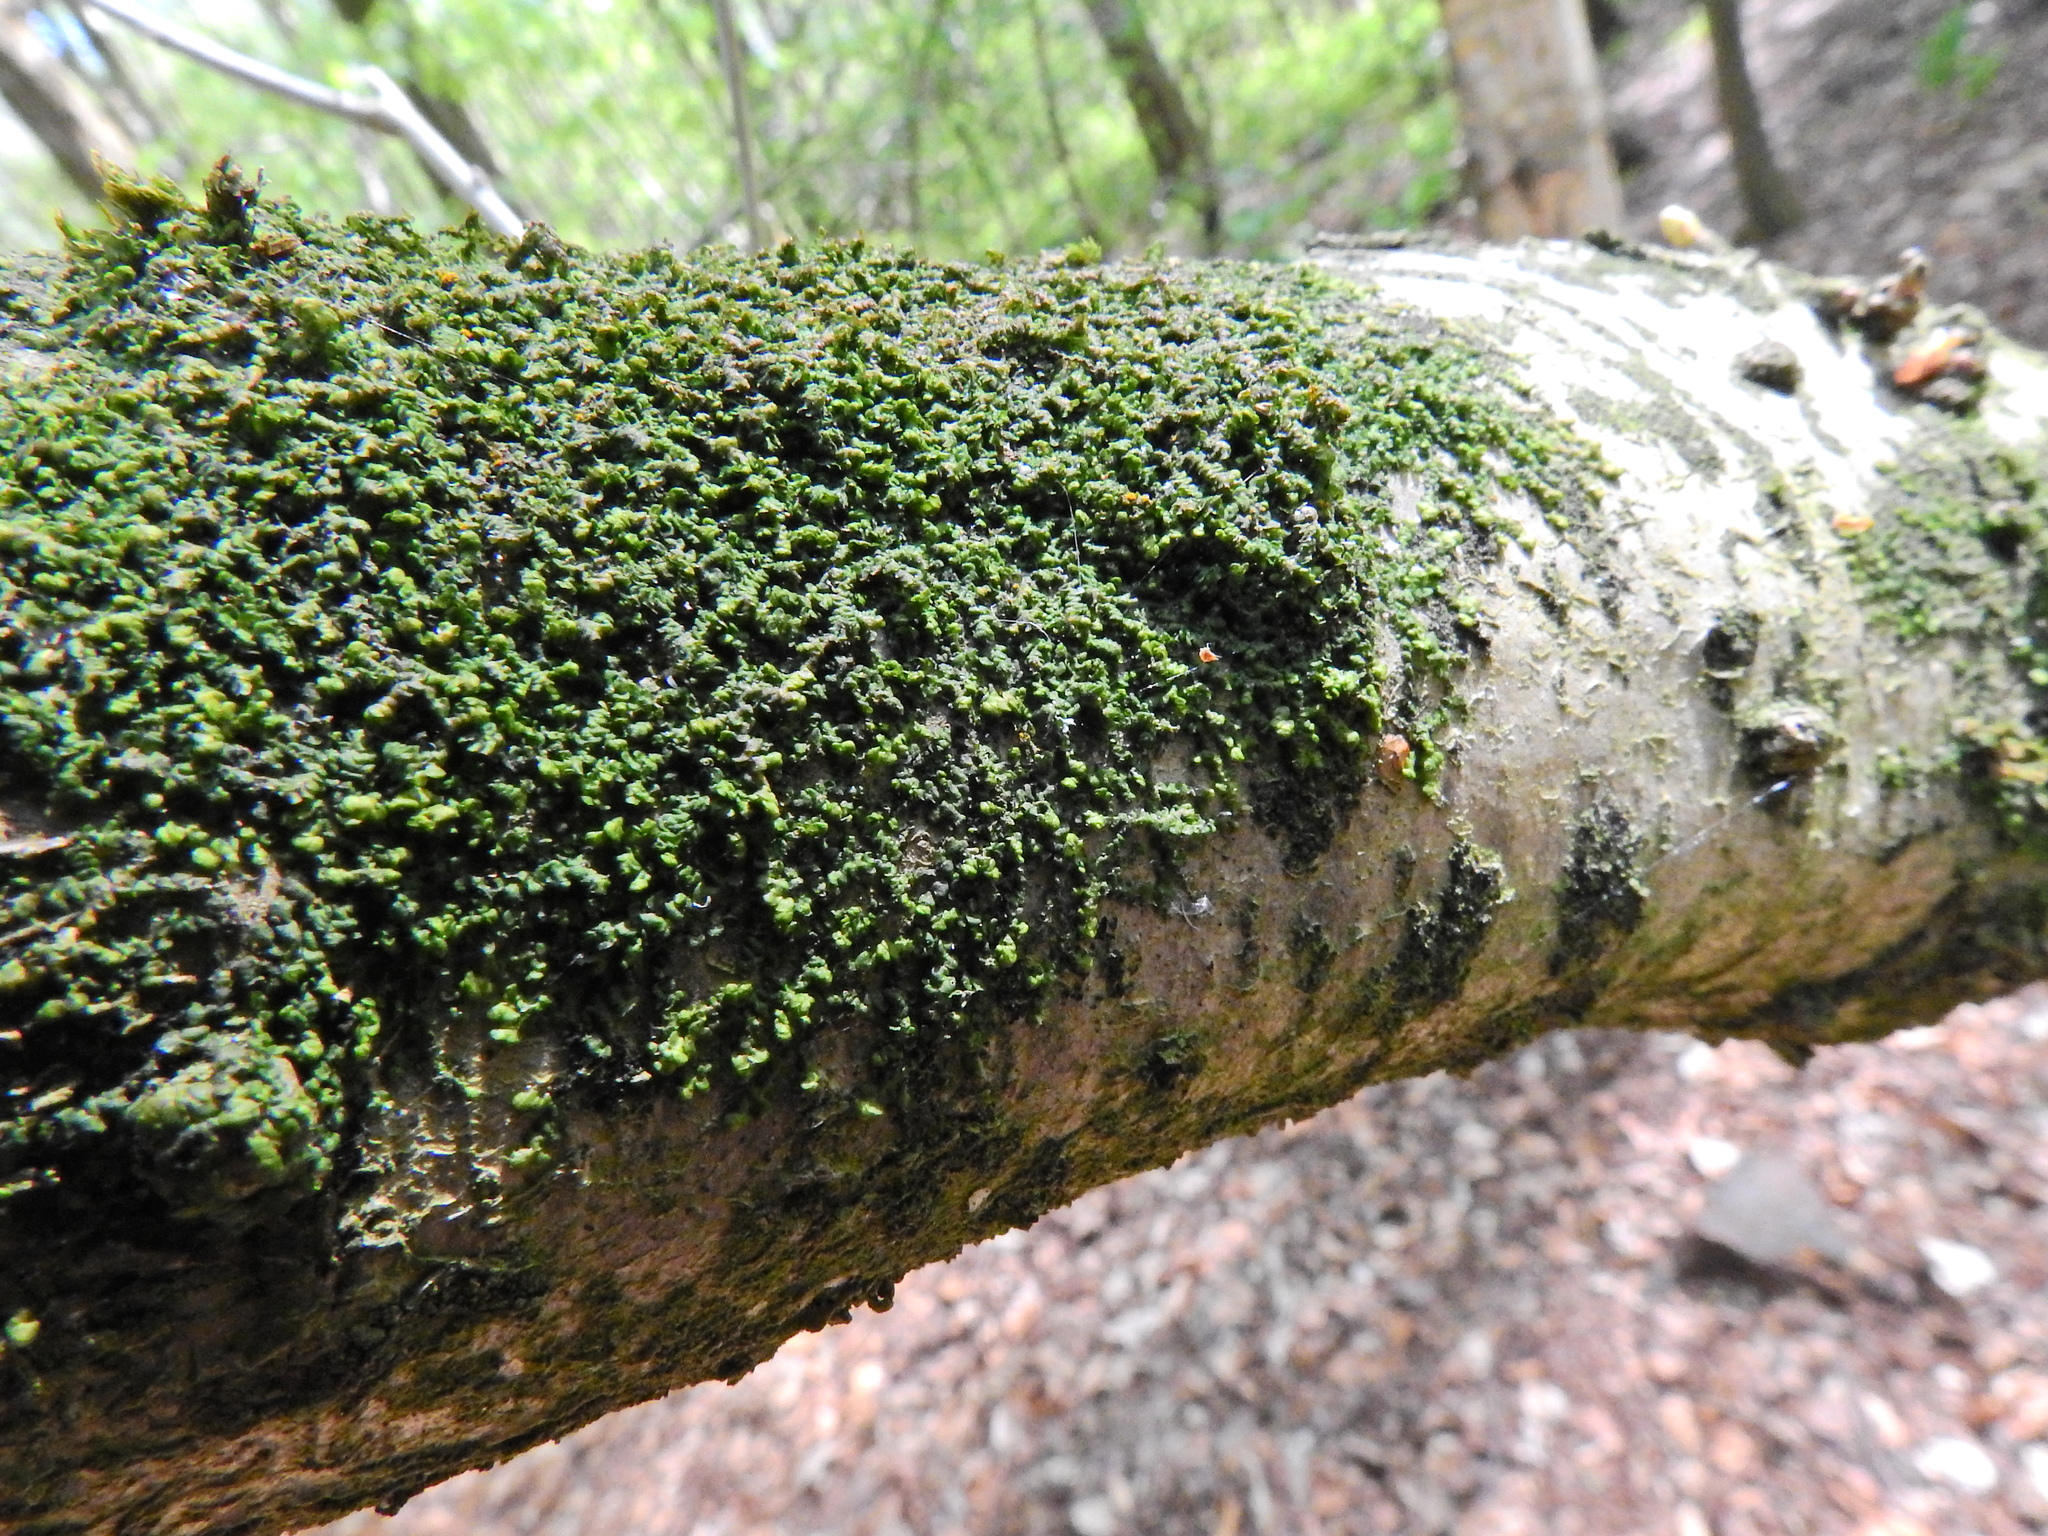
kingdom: Plantae
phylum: Marchantiophyta
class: Jungermanniopsida
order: Porellales
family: Frullaniaceae
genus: Frullania
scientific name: Frullania dilatata
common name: Dilated scalewort
